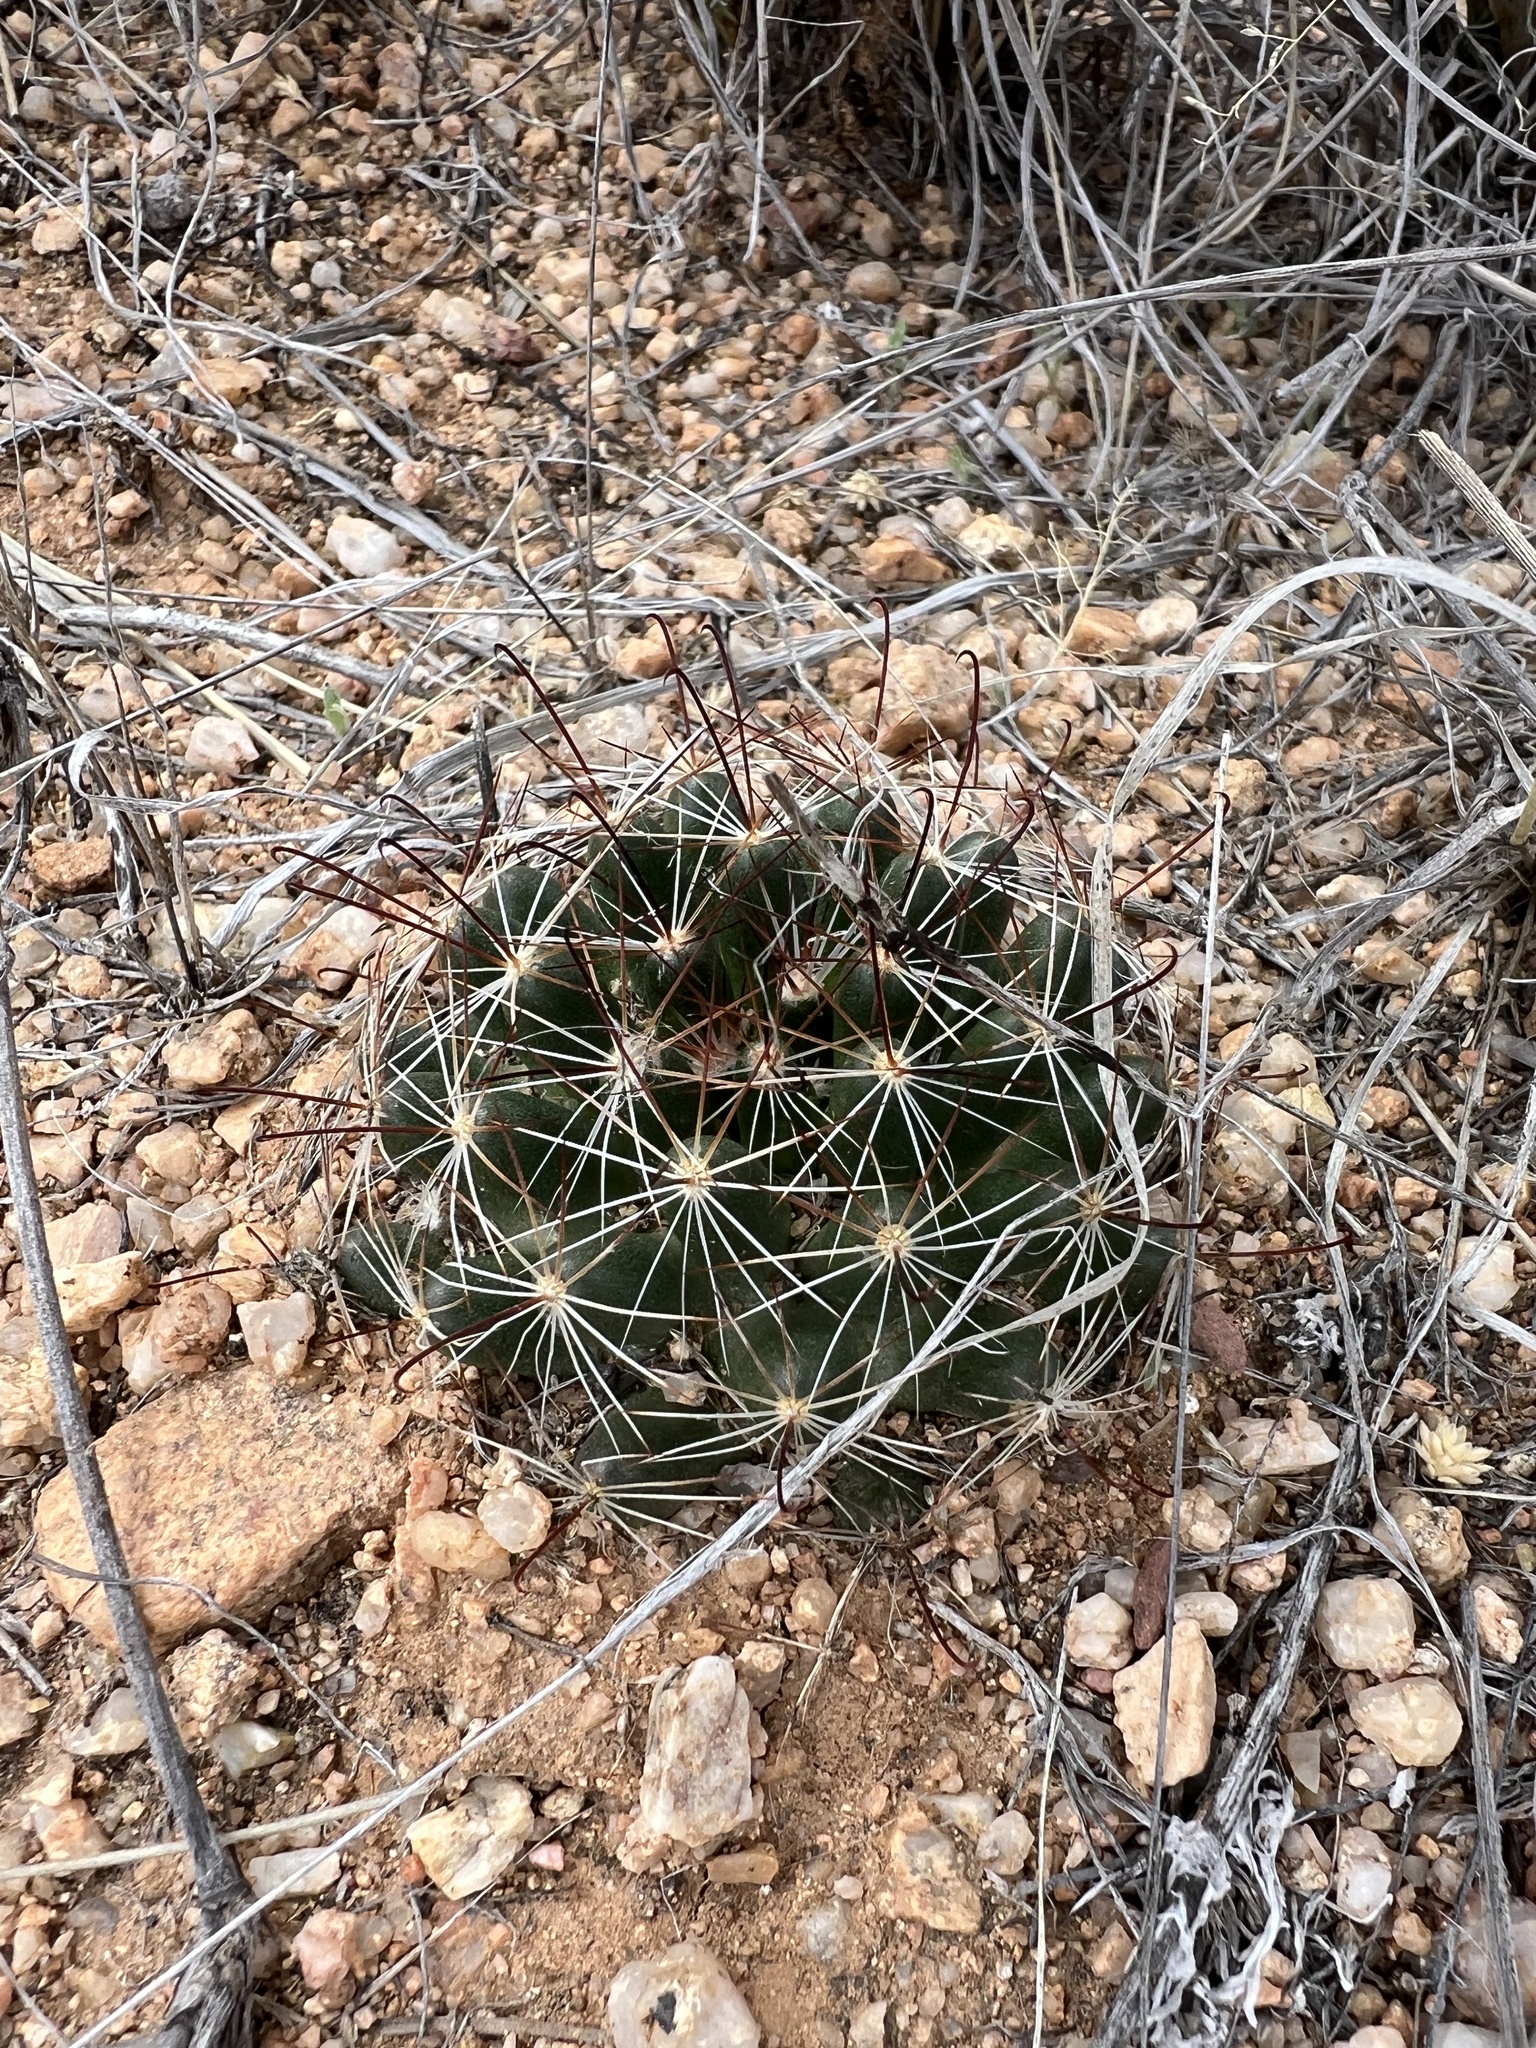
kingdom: Plantae
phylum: Tracheophyta
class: Magnoliopsida
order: Caryophyllales
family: Cactaceae
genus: Cochemiea
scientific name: Cochemiea wrightii
